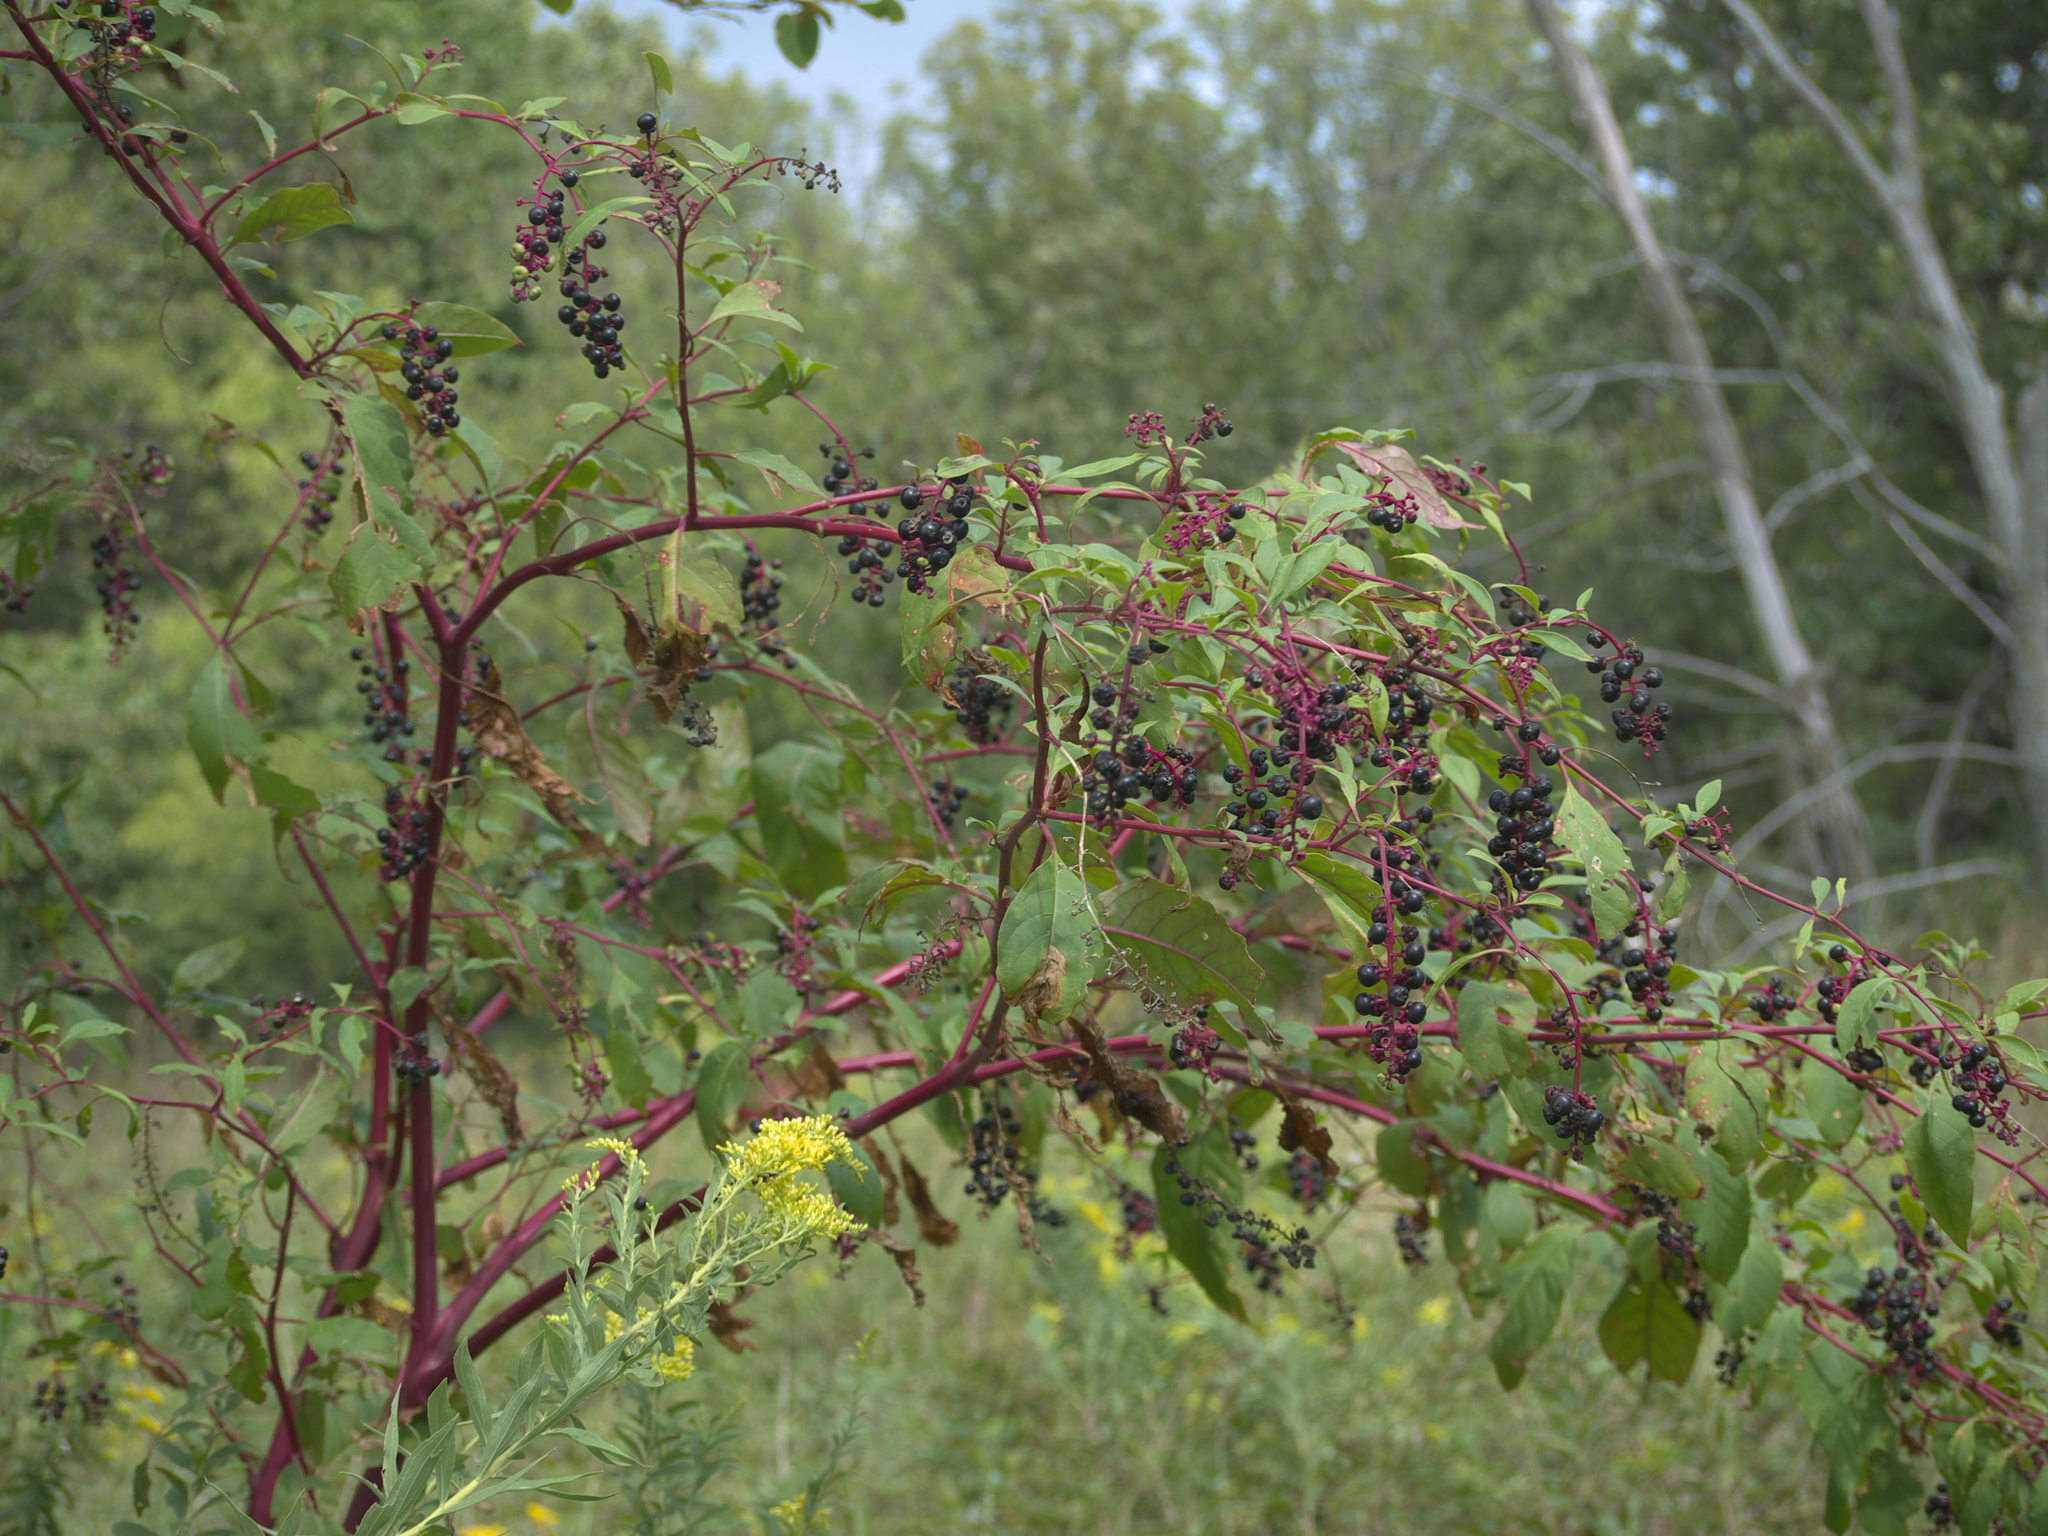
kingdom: Plantae
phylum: Tracheophyta
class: Magnoliopsida
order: Caryophyllales
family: Phytolaccaceae
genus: Phytolacca
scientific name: Phytolacca americana
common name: American pokeweed
